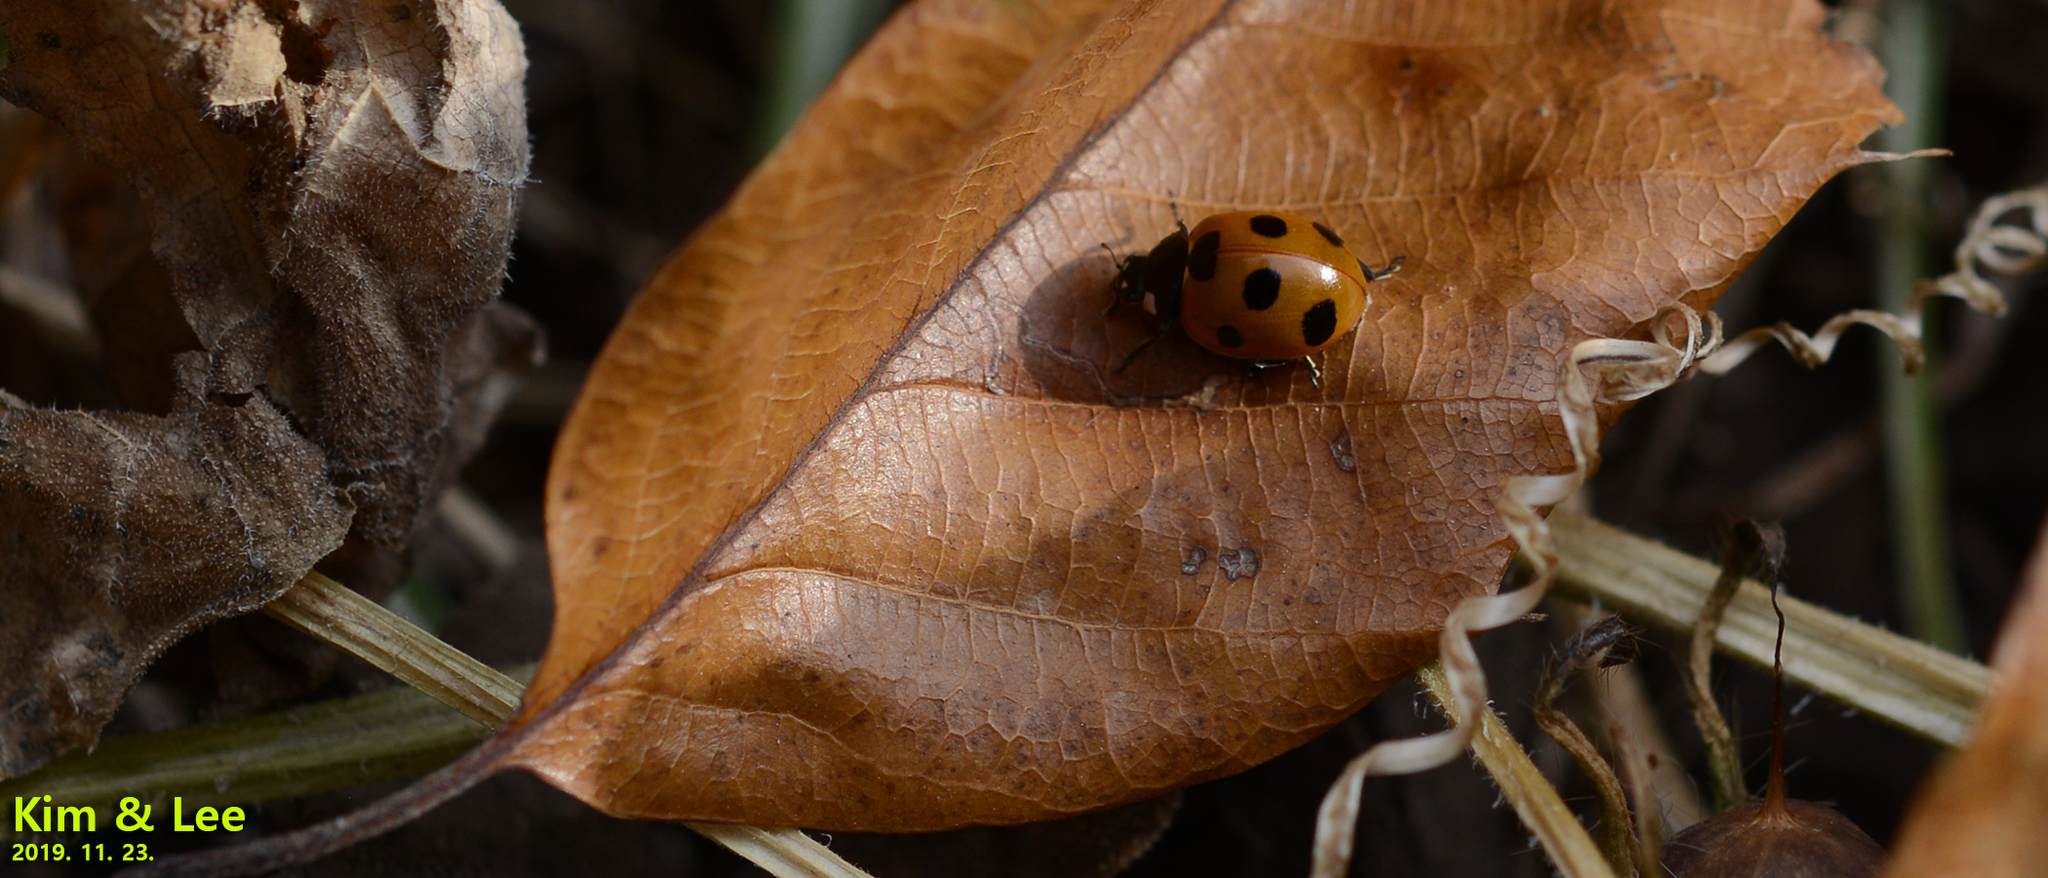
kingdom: Animalia
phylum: Arthropoda
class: Insecta
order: Coleoptera
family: Coccinellidae
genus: Coccinella
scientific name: Coccinella septempunctata
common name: Sevenspotted lady beetle
